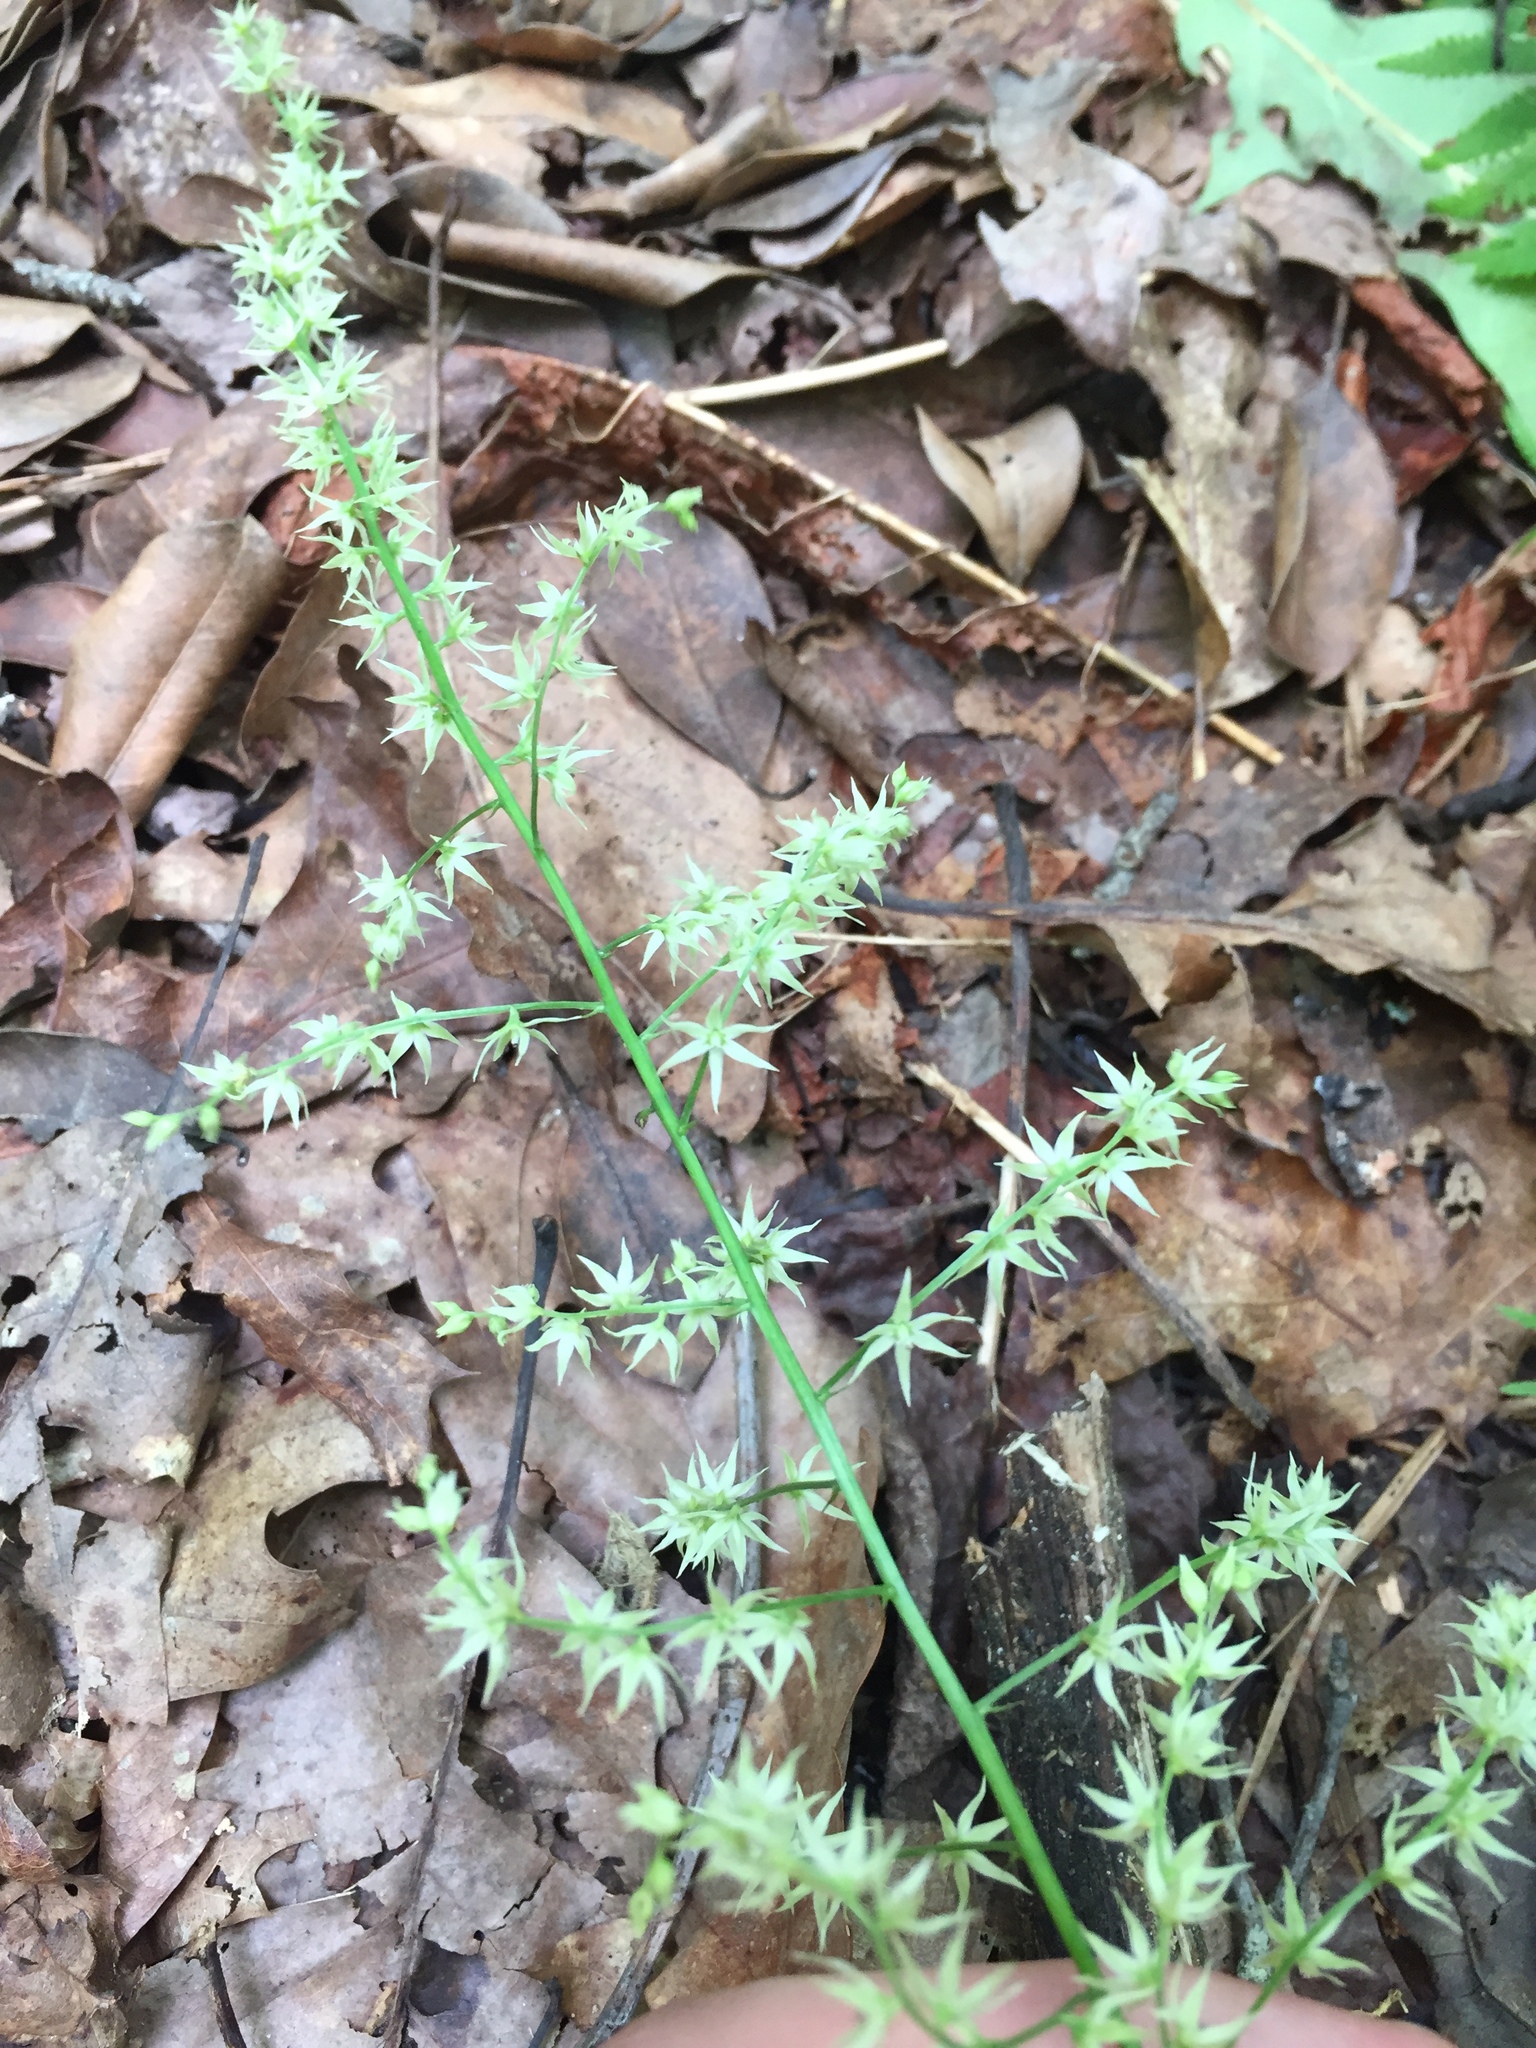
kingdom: Plantae
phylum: Tracheophyta
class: Liliopsida
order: Liliales
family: Melanthiaceae
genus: Stenanthium
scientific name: Stenanthium gramineum
